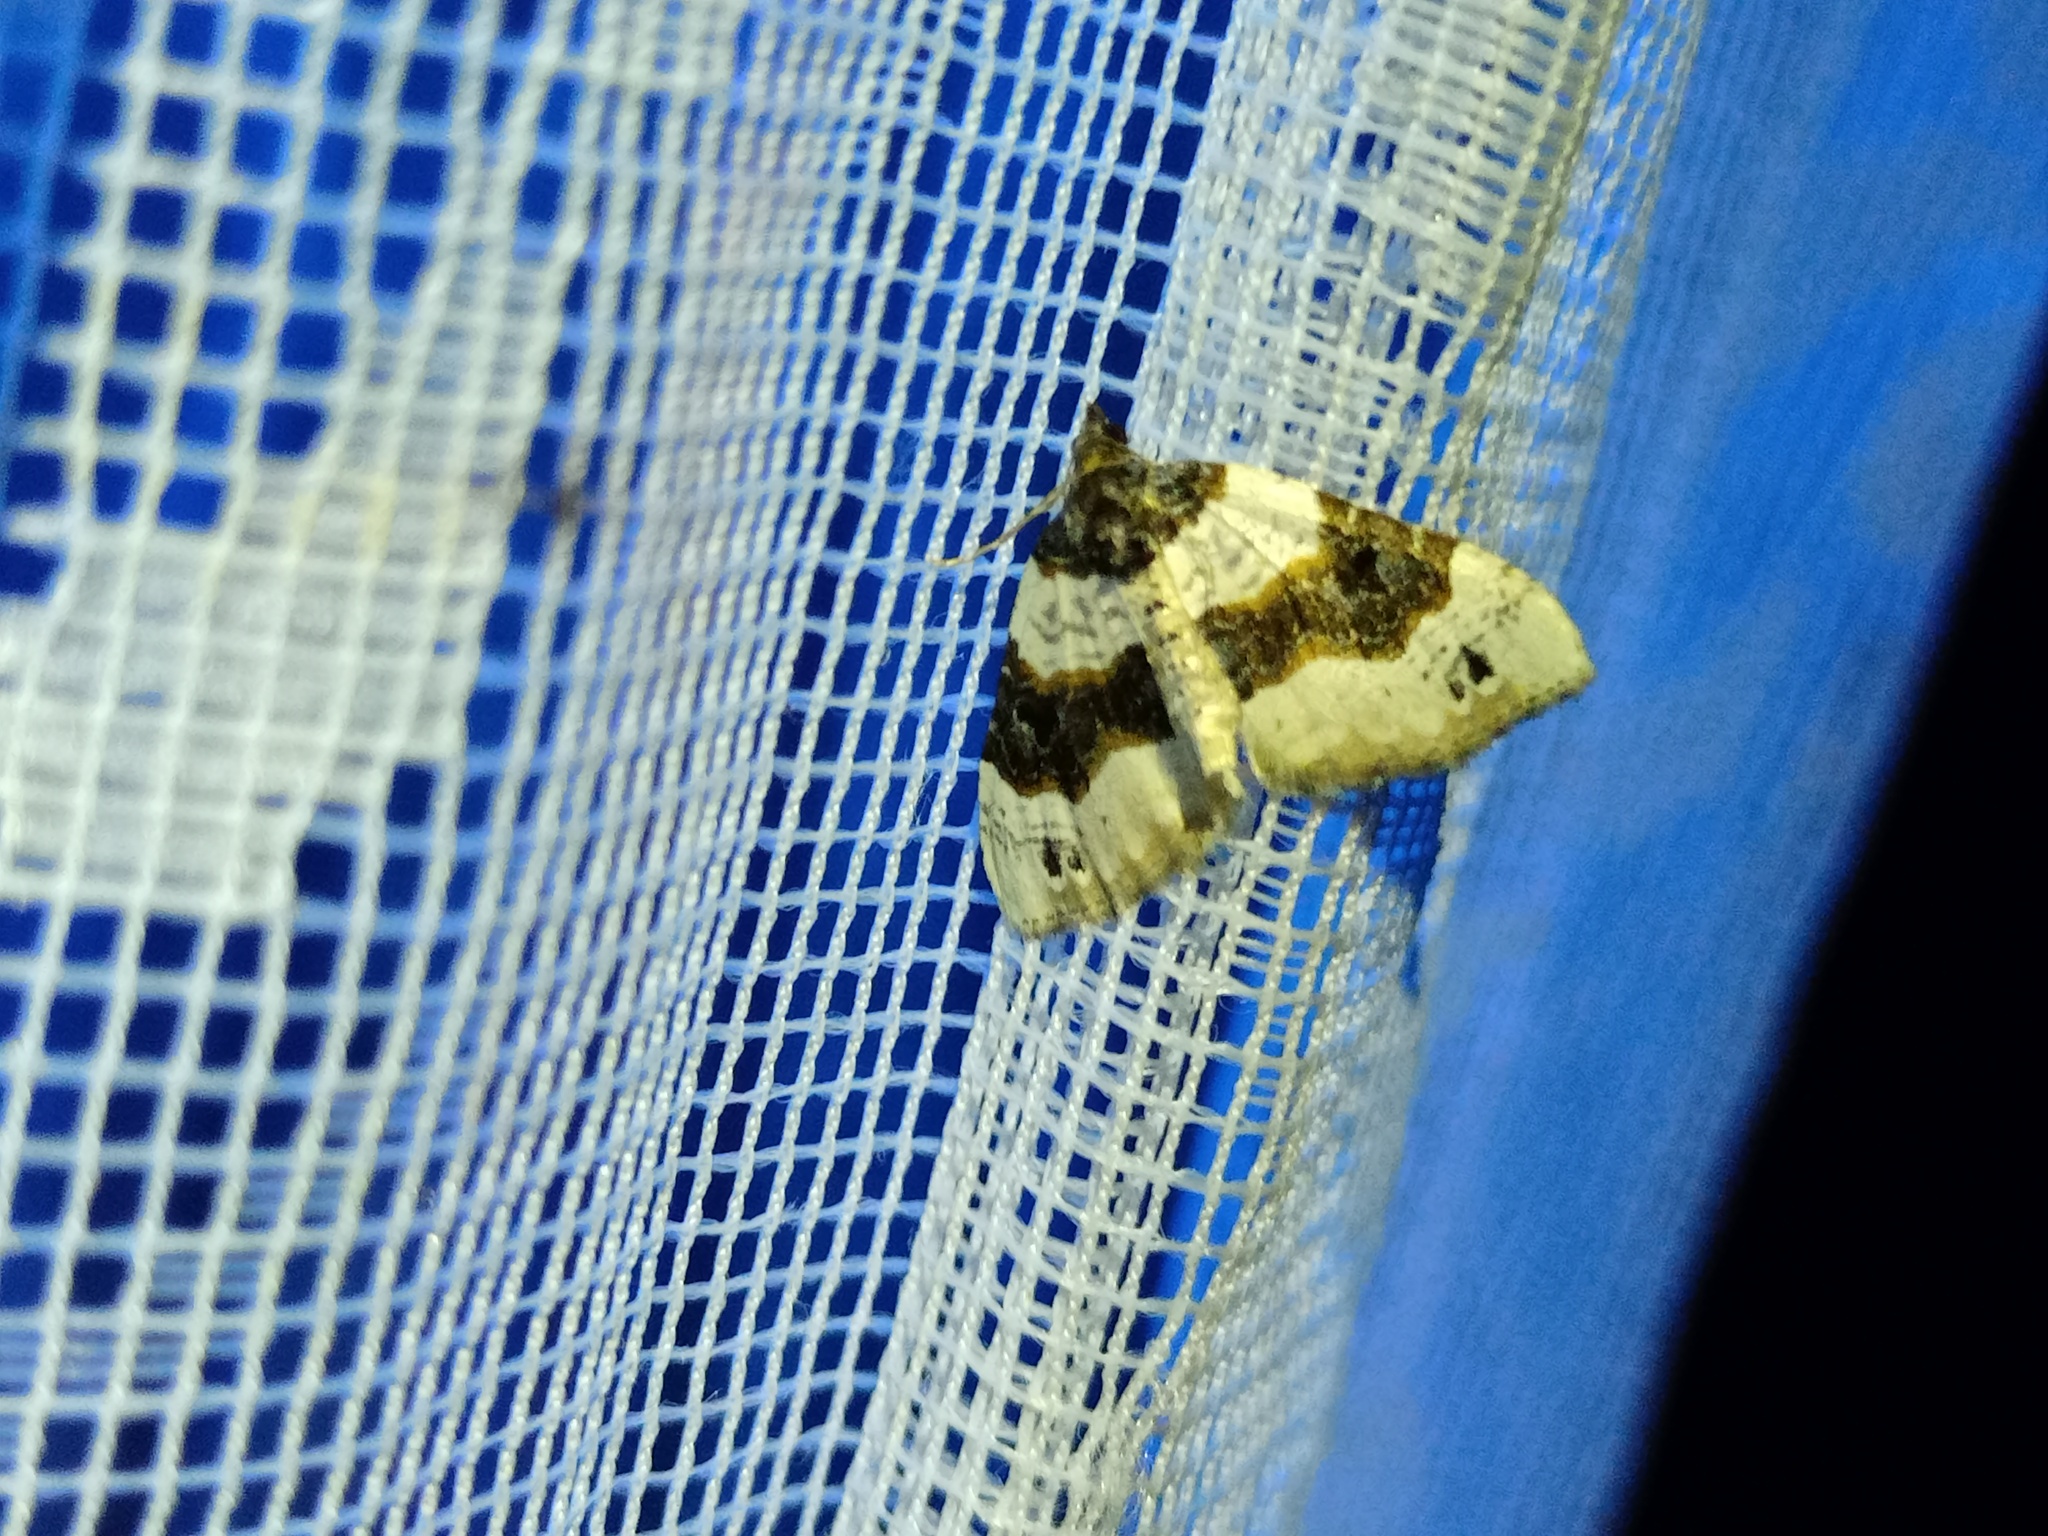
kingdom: Animalia
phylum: Arthropoda
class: Insecta
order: Lepidoptera
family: Geometridae
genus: Cosmorhoe
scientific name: Cosmorhoe ocellata
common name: Purple bar
